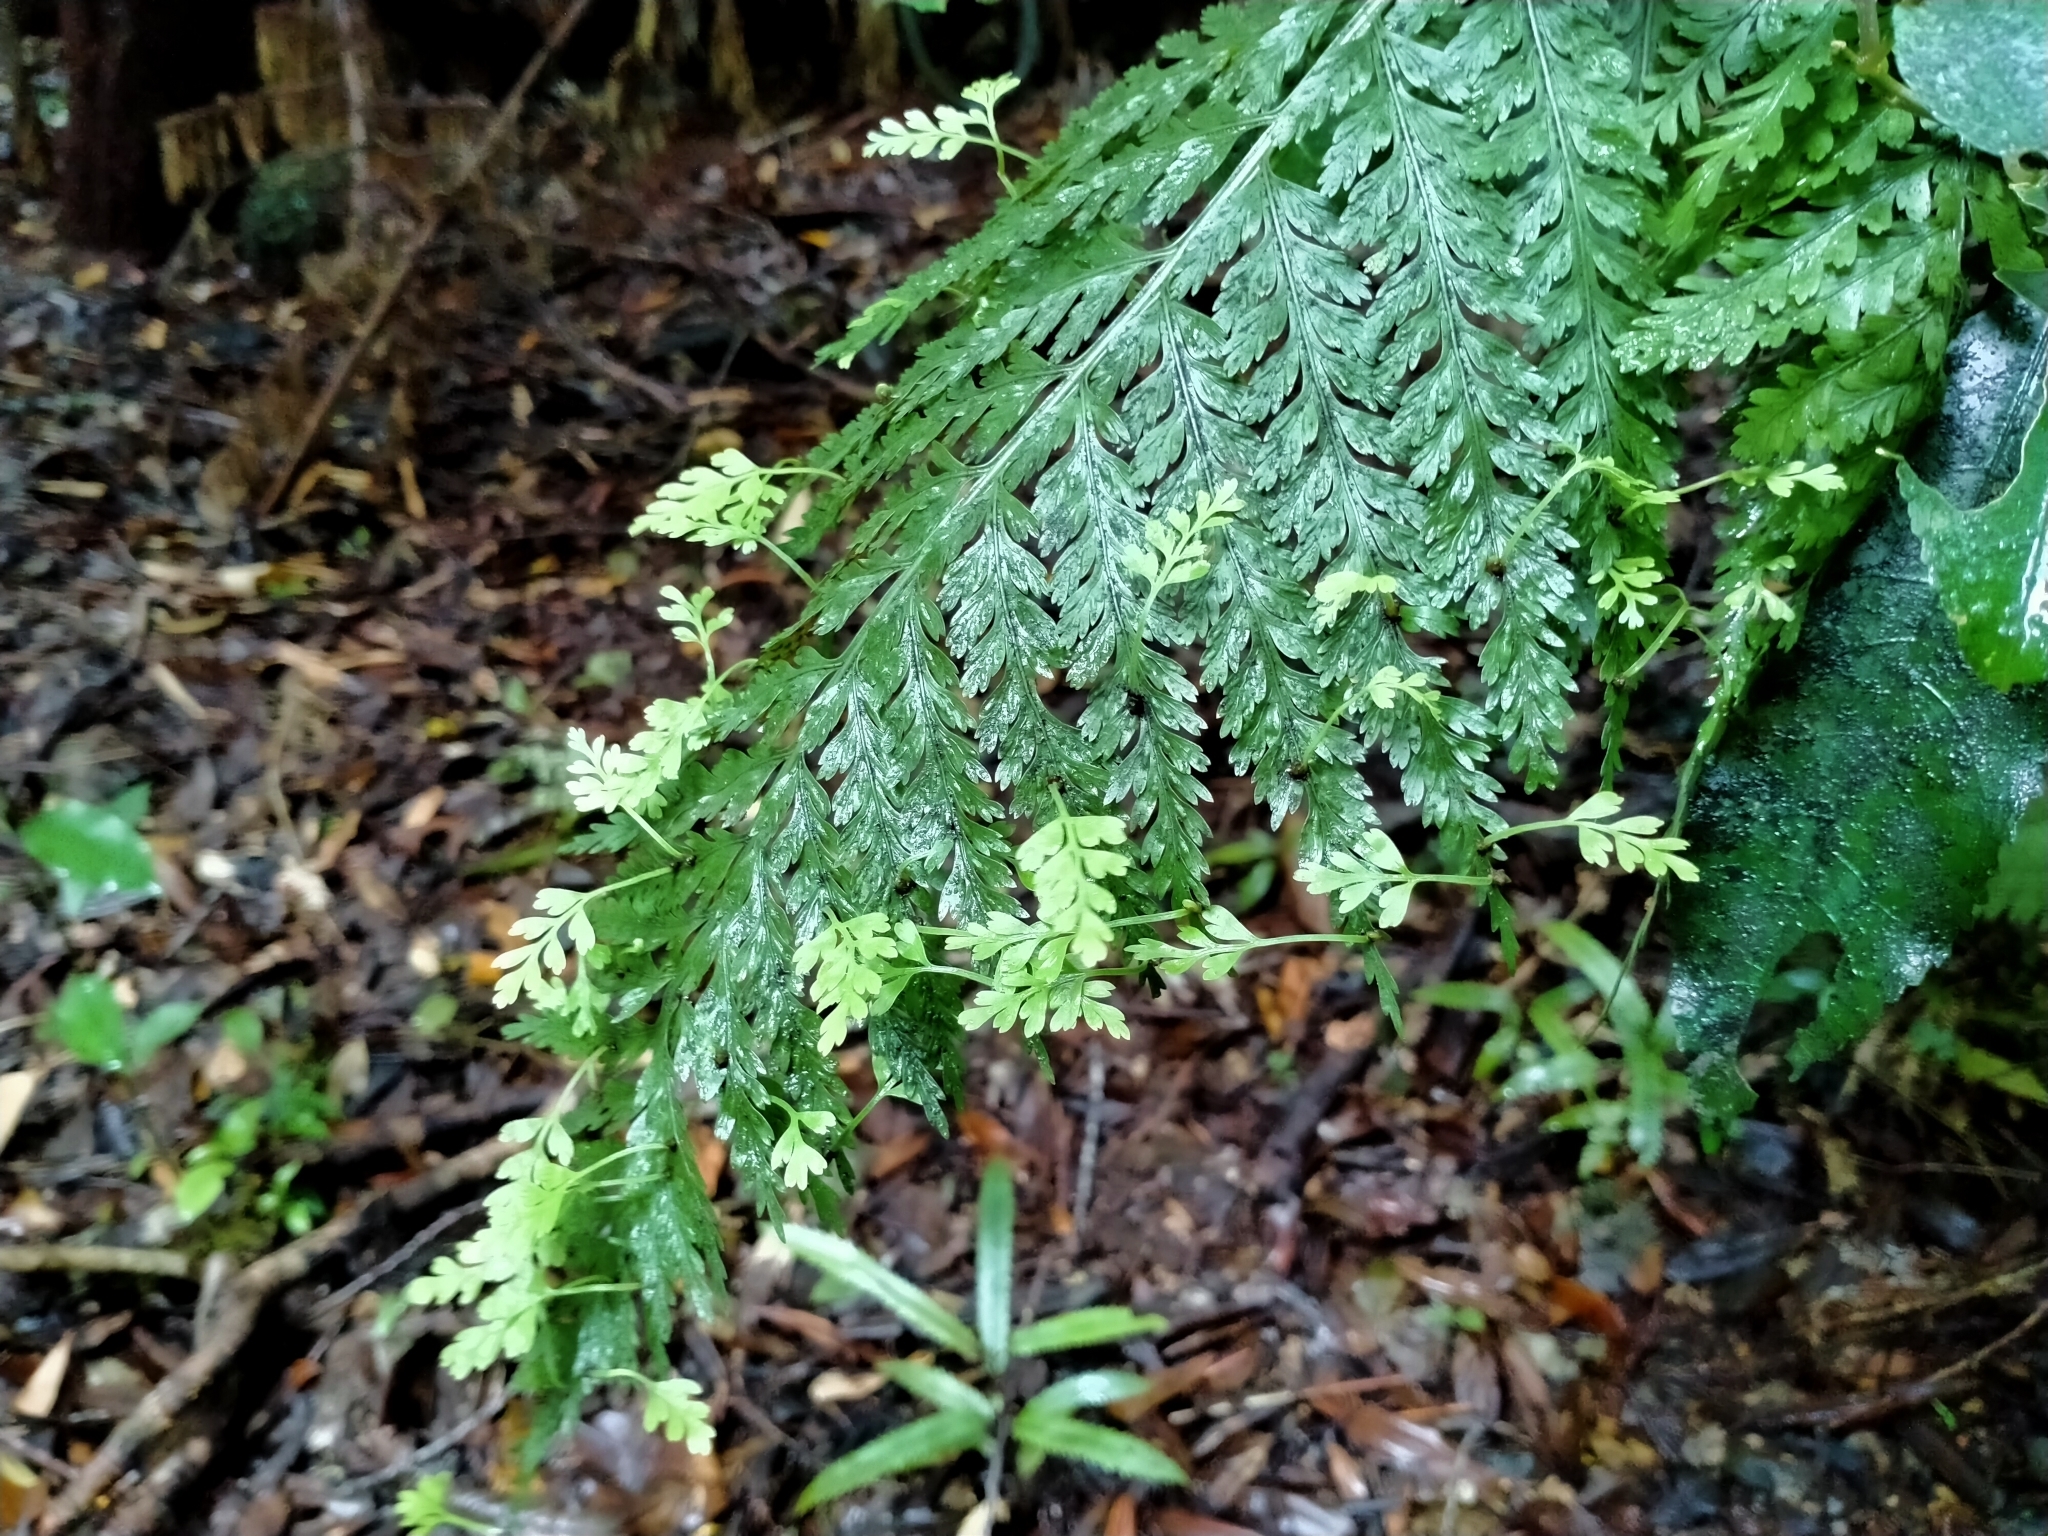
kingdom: Plantae
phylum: Tracheophyta
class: Polypodiopsida
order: Polypodiales
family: Aspleniaceae
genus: Asplenium
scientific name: Asplenium bulbiferum
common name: Mother fern
